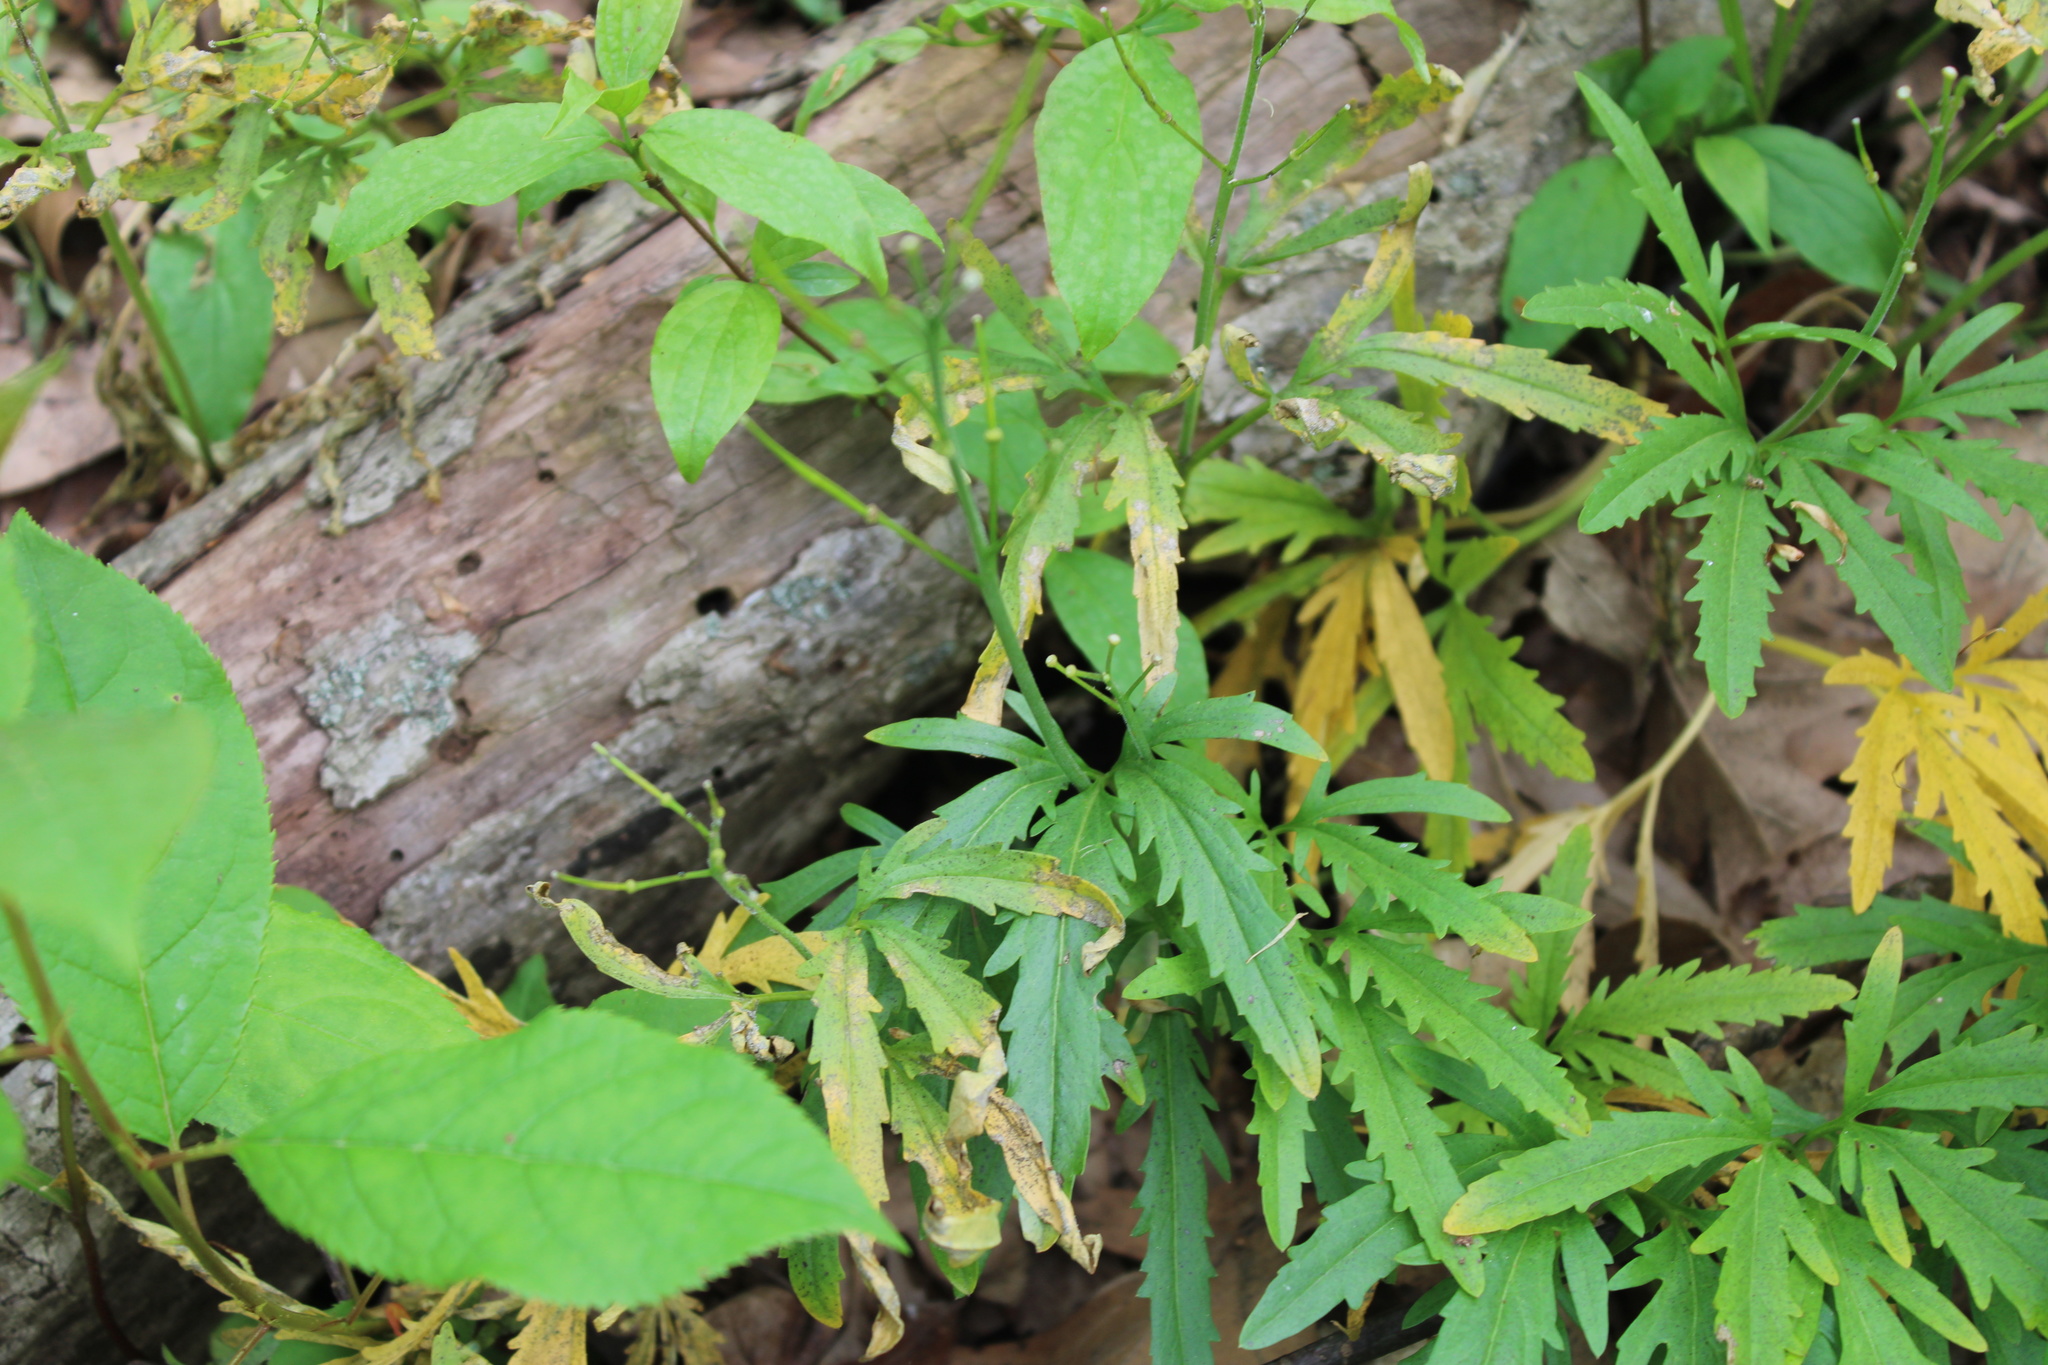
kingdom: Plantae
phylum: Tracheophyta
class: Magnoliopsida
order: Brassicales
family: Brassicaceae
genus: Cardamine
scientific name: Cardamine concatenata
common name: Cut-leaf toothcup
